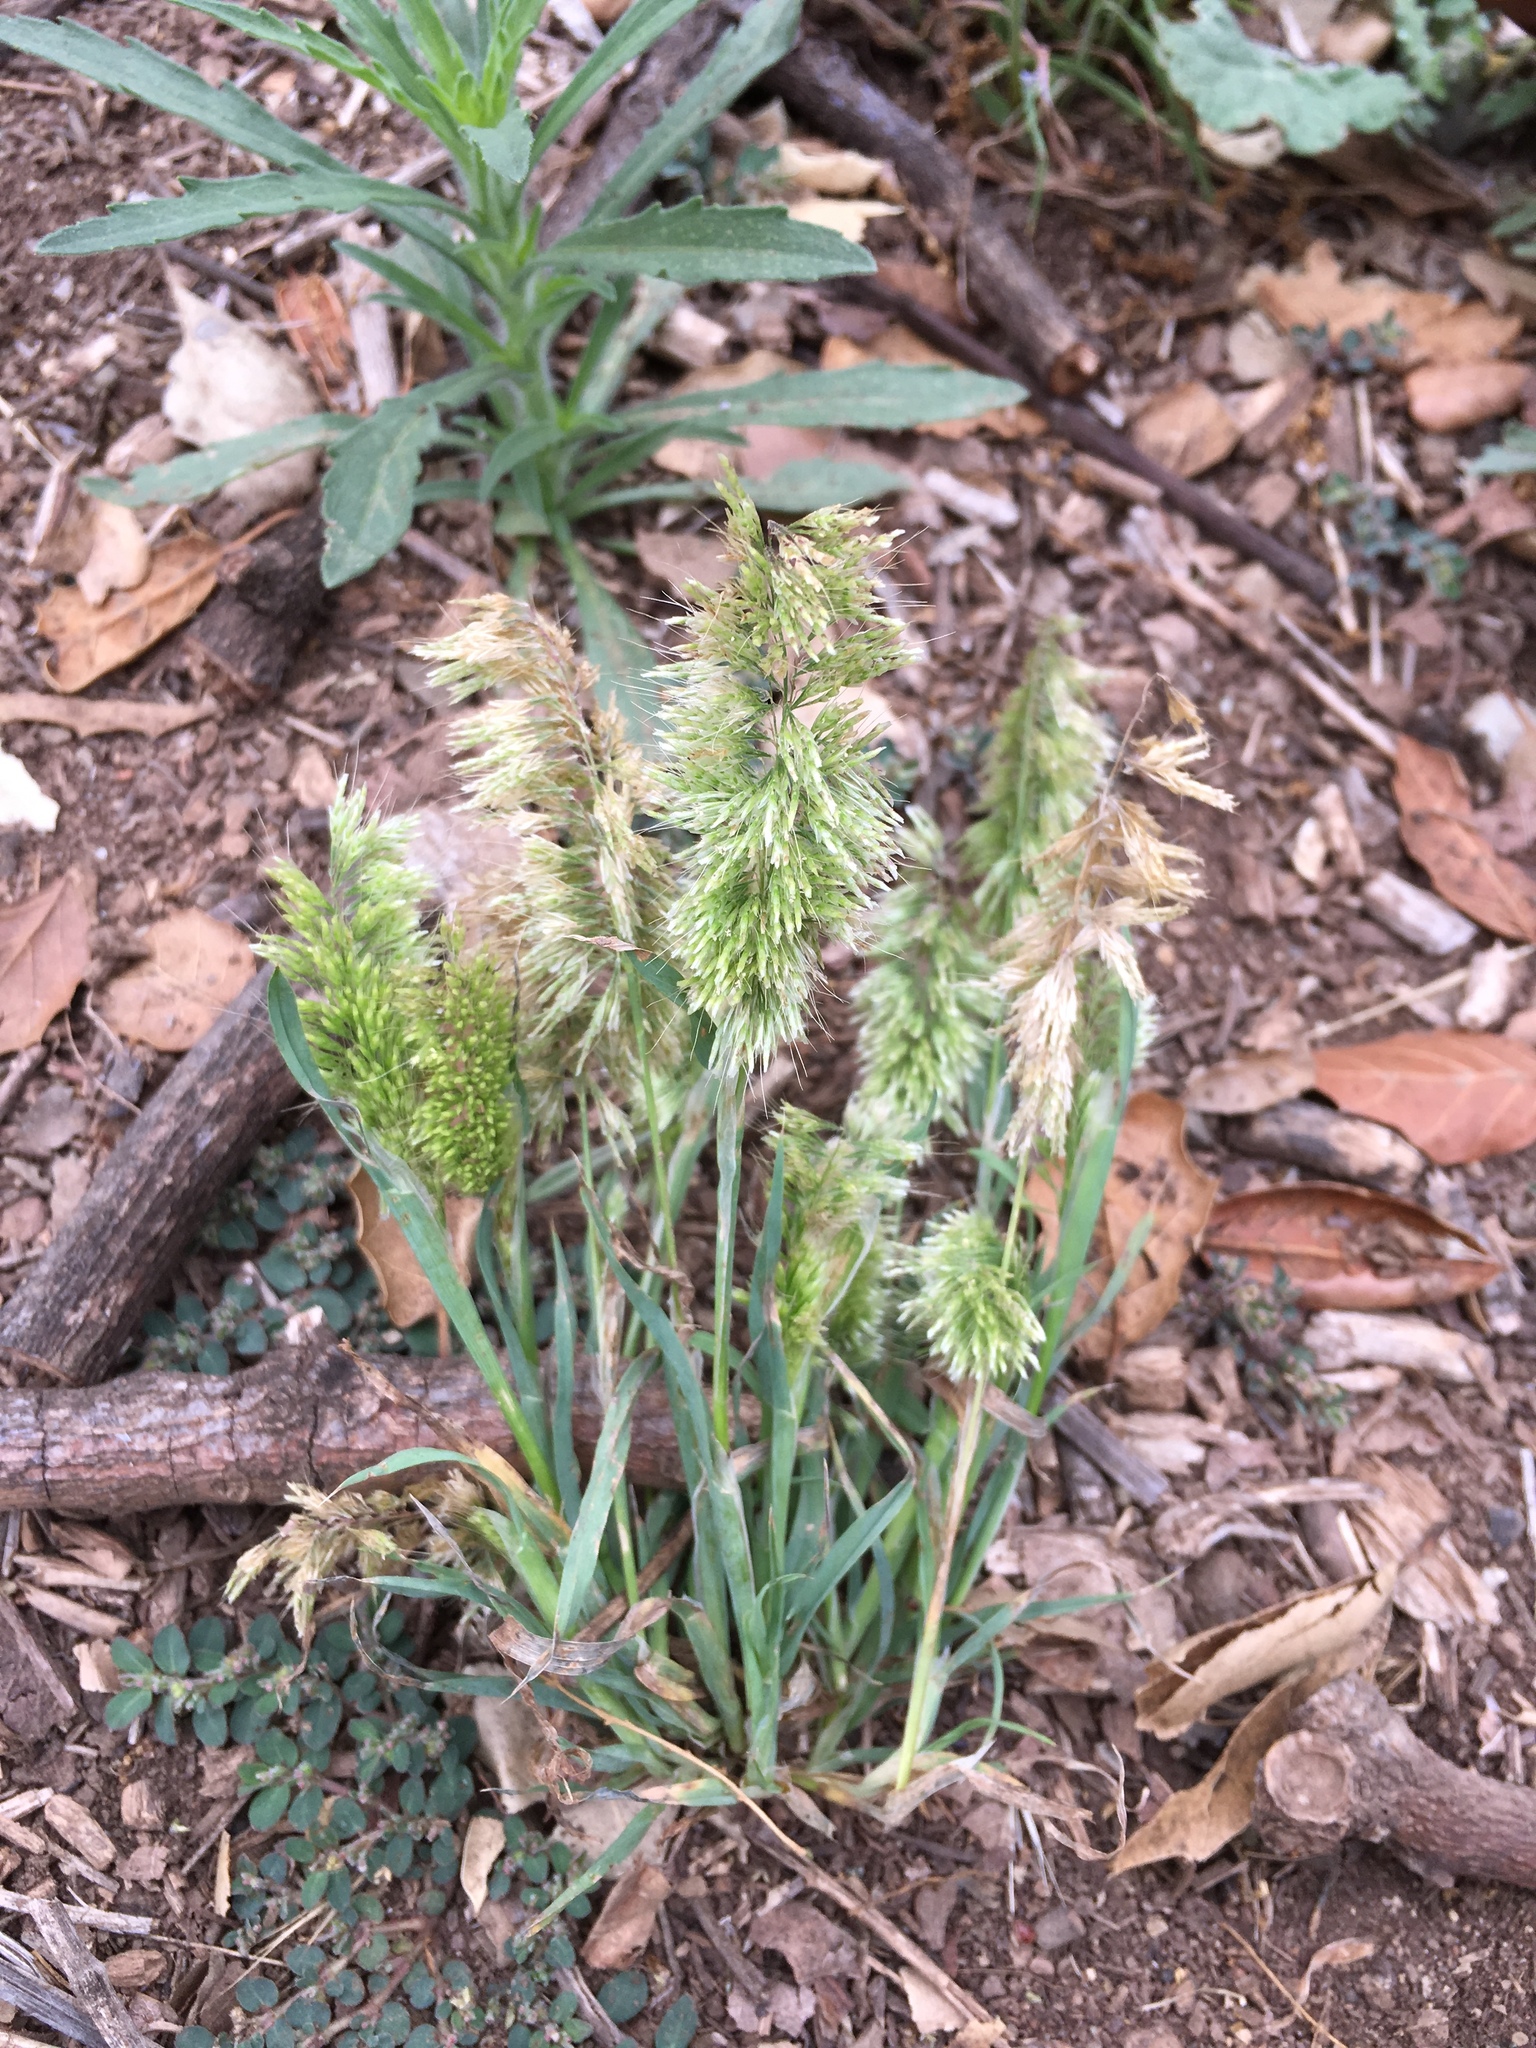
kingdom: Plantae
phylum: Tracheophyta
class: Liliopsida
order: Poales
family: Poaceae
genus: Lamarckia
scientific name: Lamarckia aurea
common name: Golden dog's-tail
